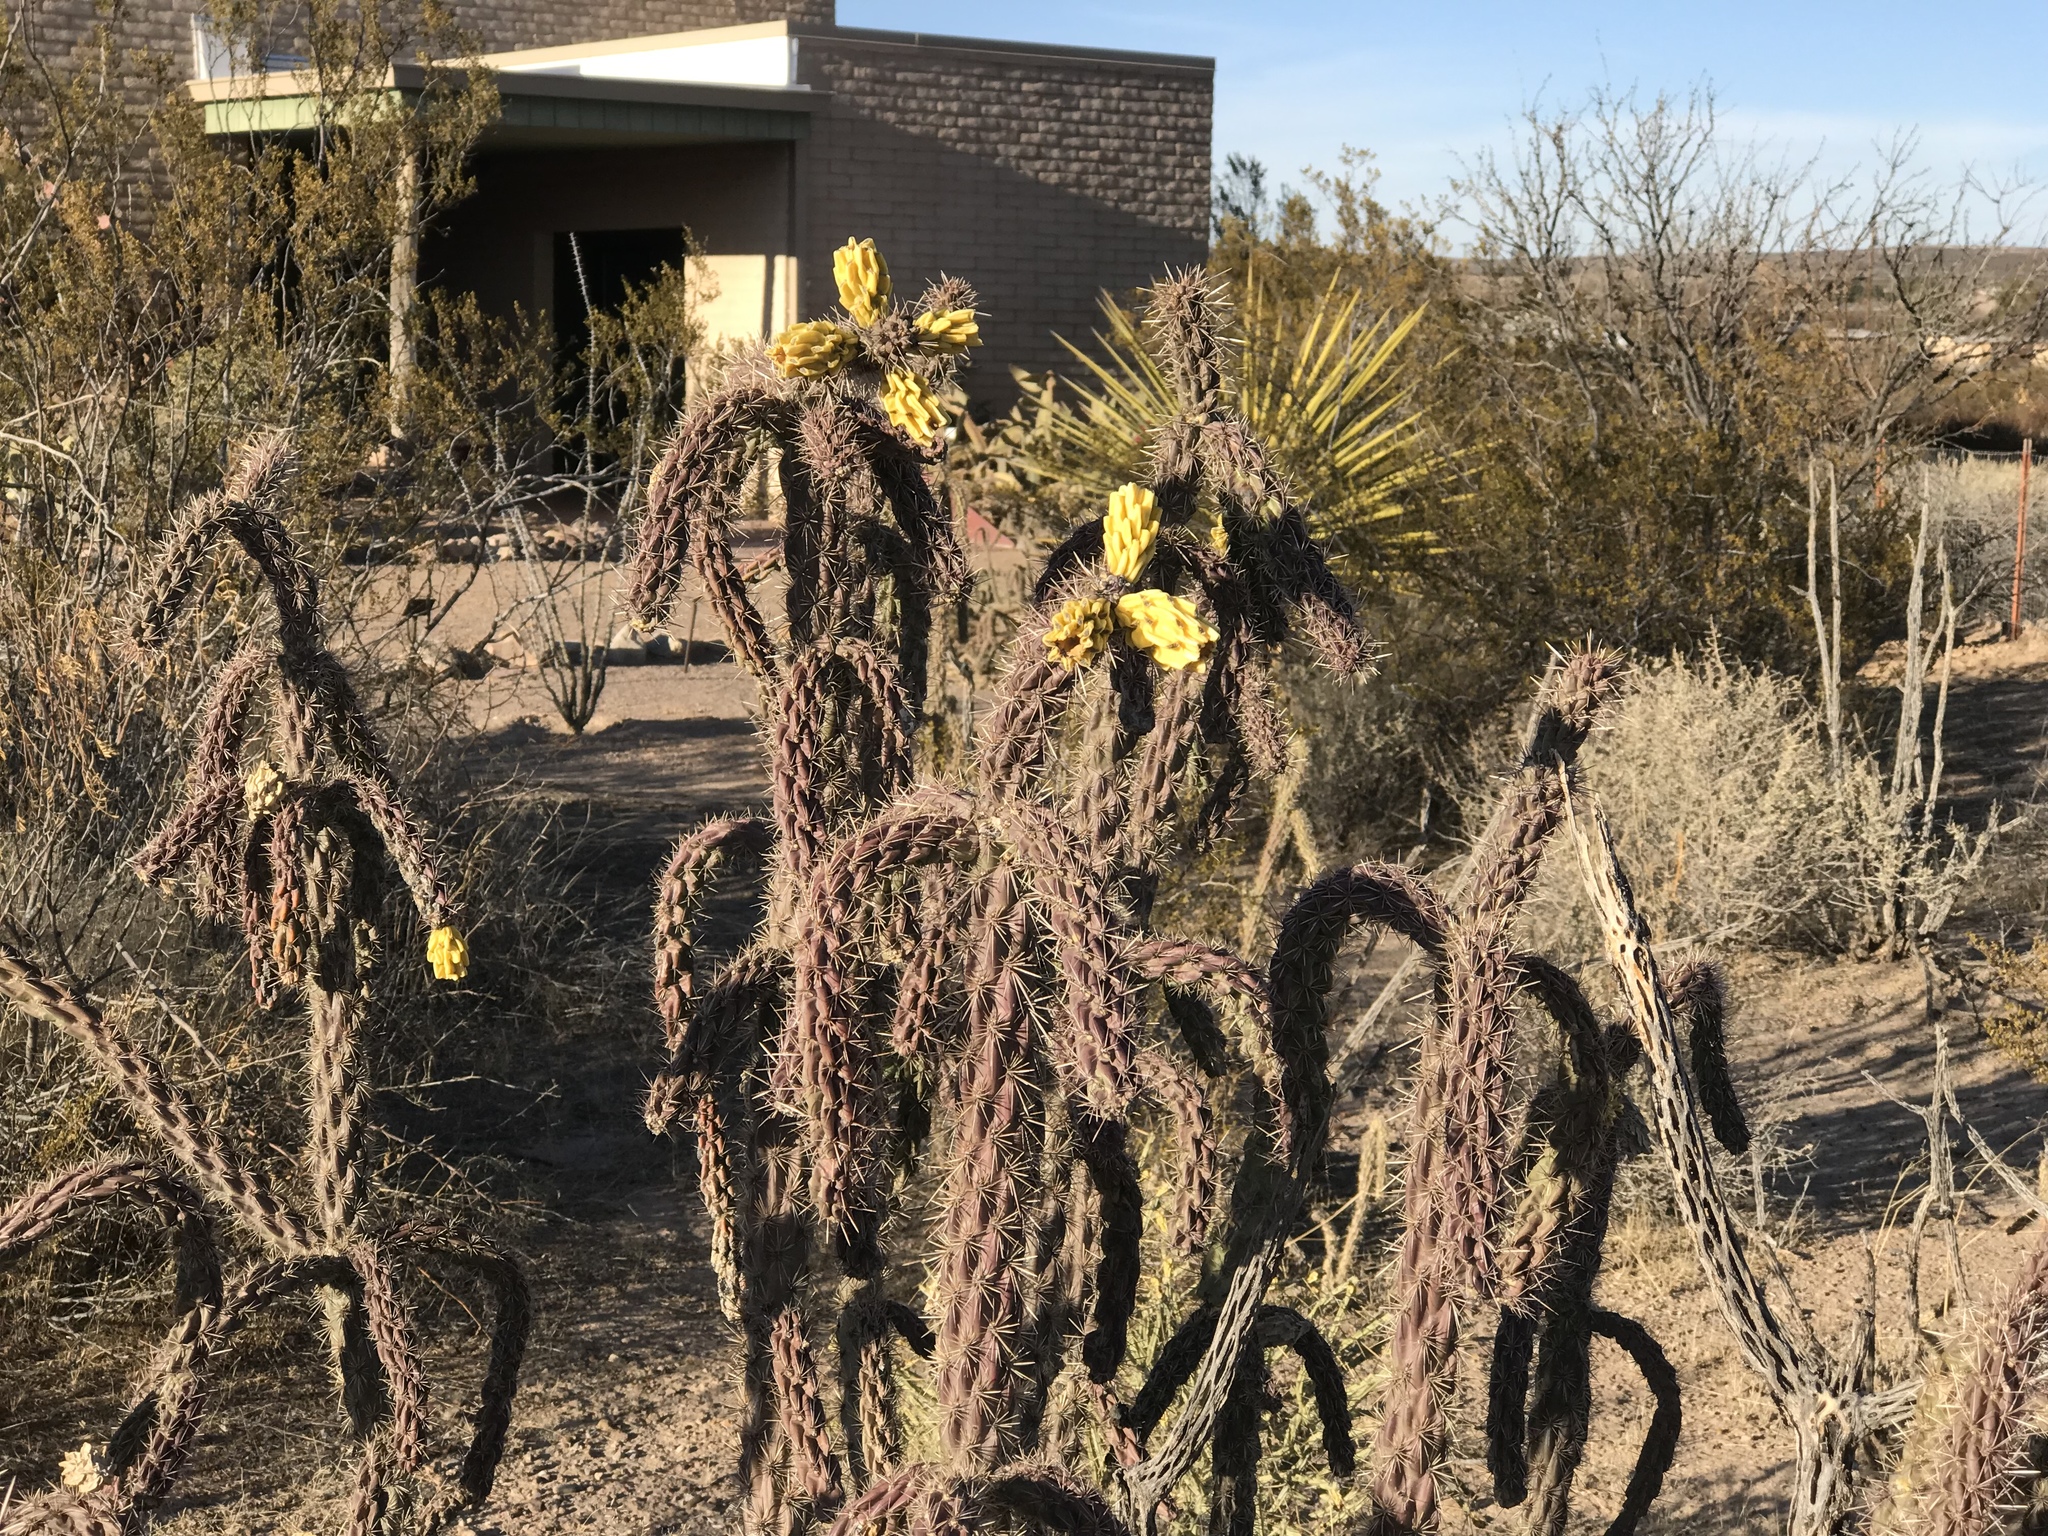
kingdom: Plantae
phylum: Tracheophyta
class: Magnoliopsida
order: Caryophyllales
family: Cactaceae
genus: Cylindropuntia
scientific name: Cylindropuntia imbricata
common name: Candelabrum cactus
